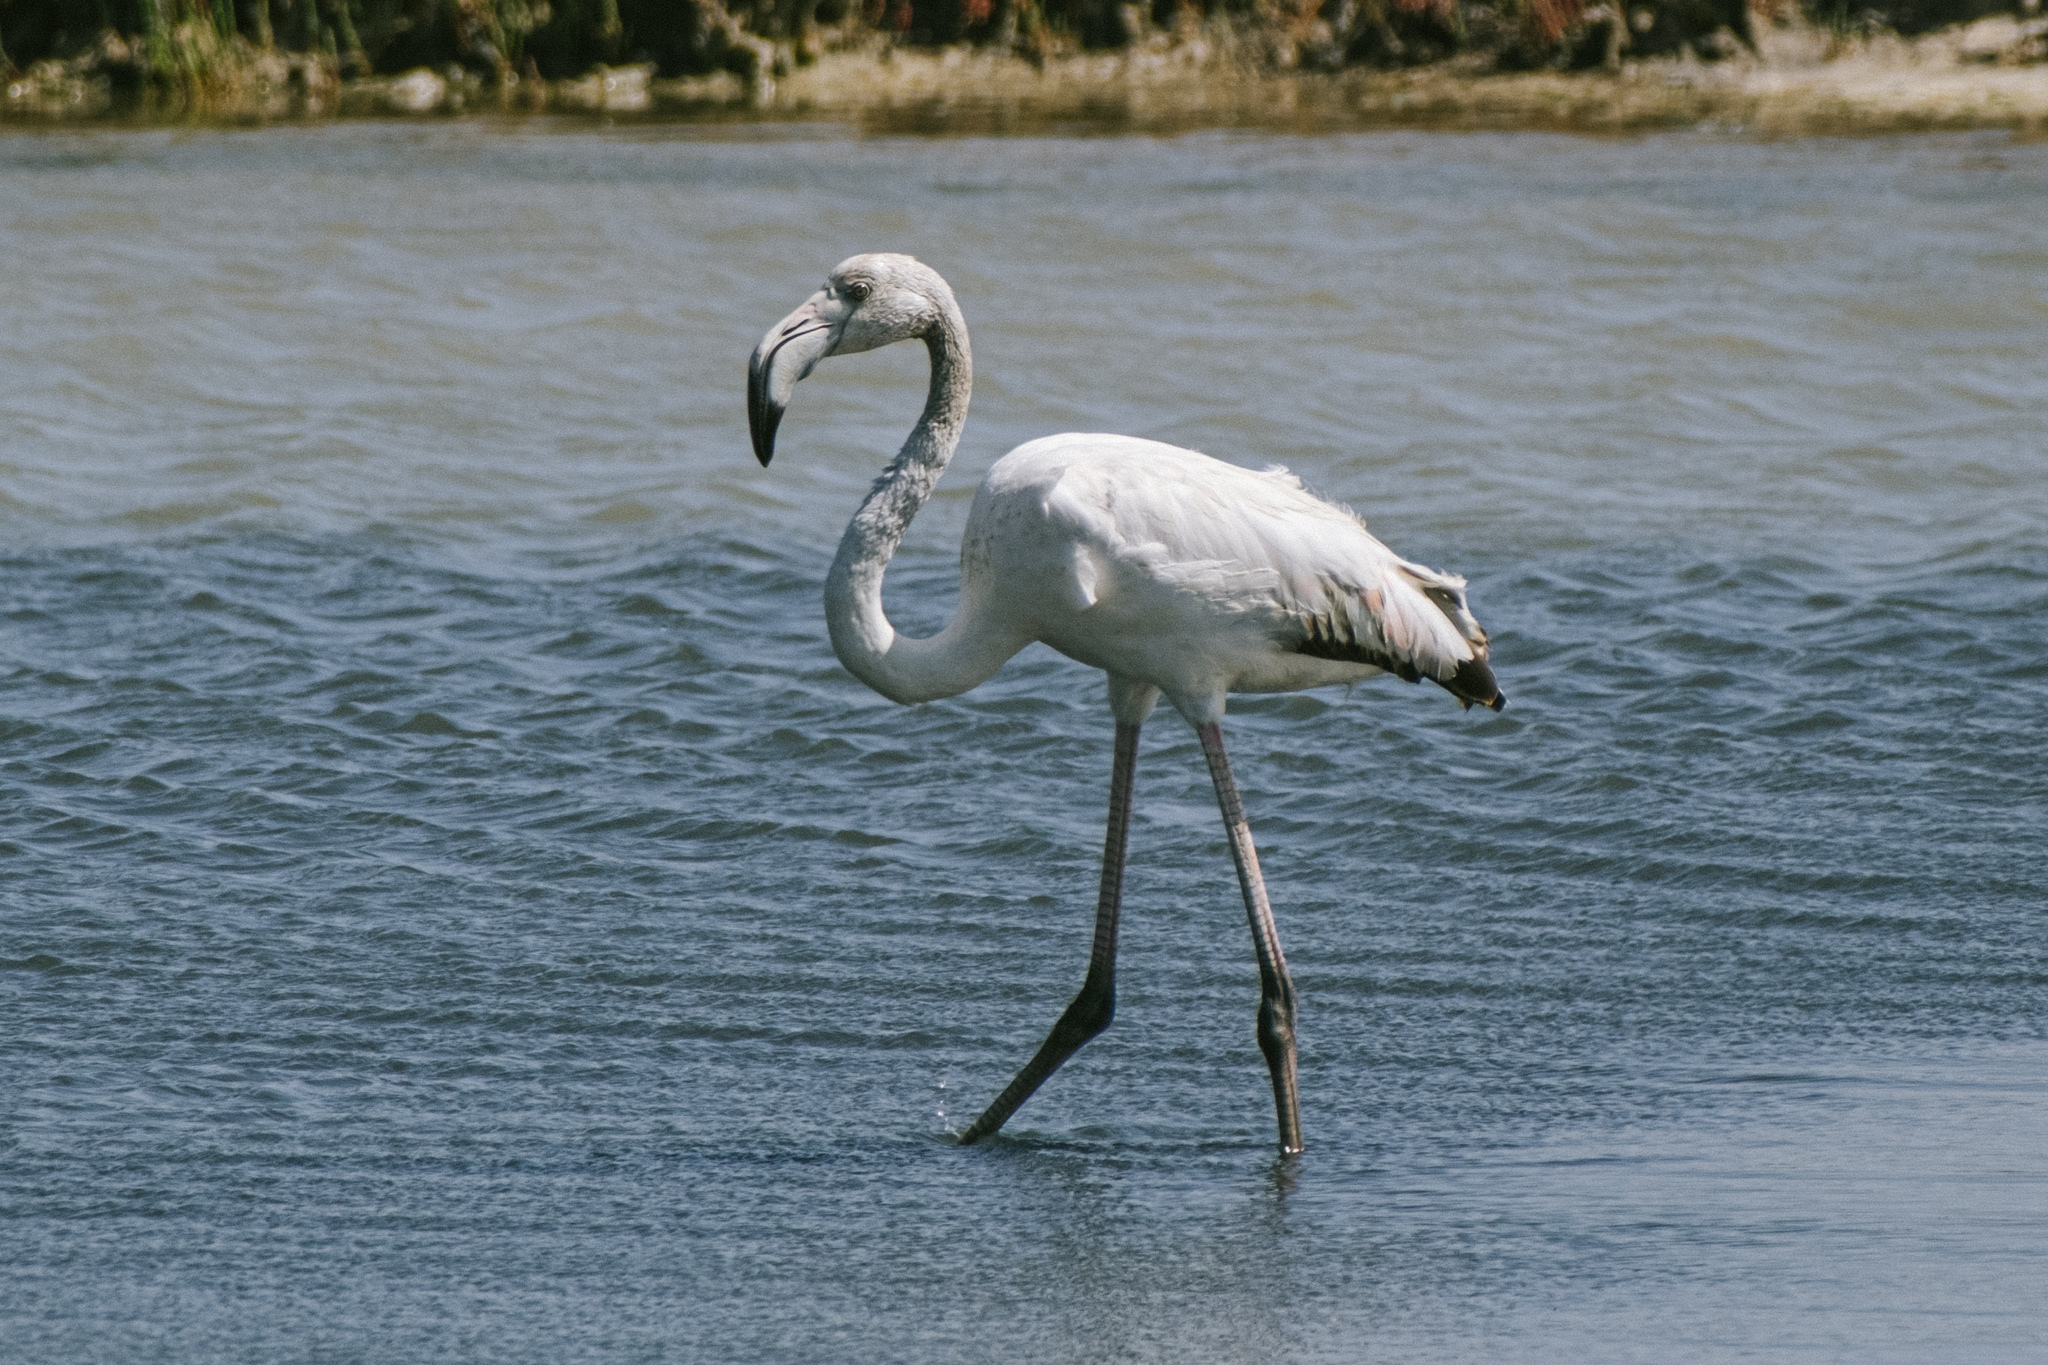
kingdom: Animalia
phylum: Chordata
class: Aves
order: Phoenicopteriformes
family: Phoenicopteridae
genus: Phoenicopterus
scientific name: Phoenicopterus roseus
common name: Greater flamingo
